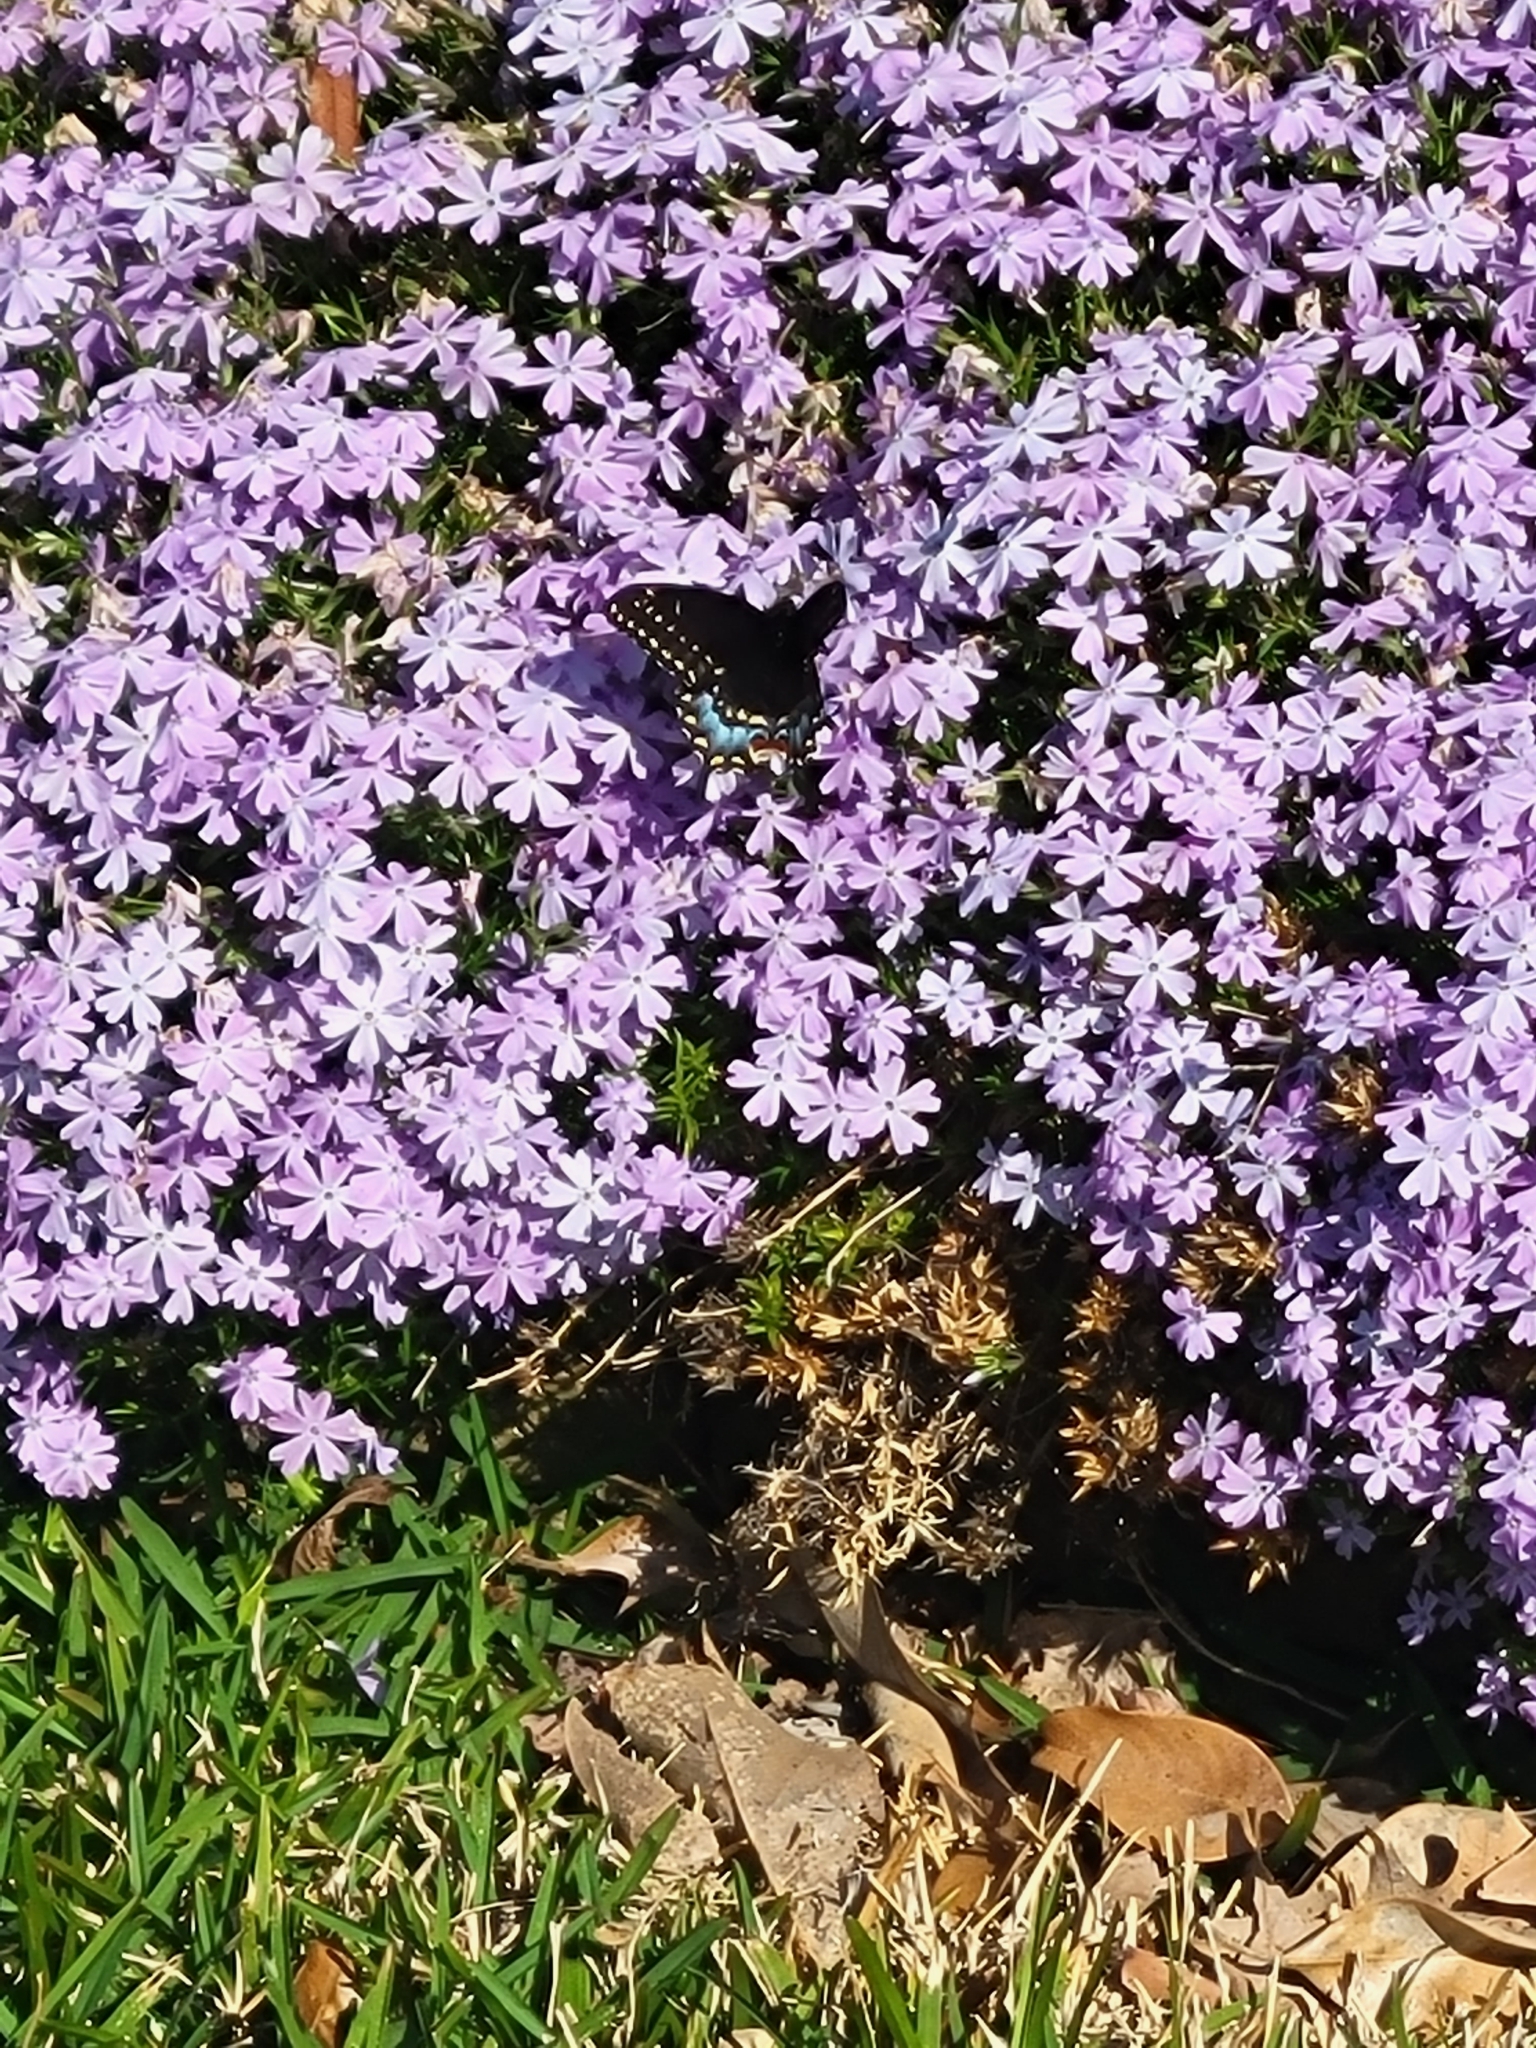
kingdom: Animalia
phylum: Arthropoda
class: Insecta
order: Lepidoptera
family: Papilionidae
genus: Papilio
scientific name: Papilio polyxenes
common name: Black swallowtail
